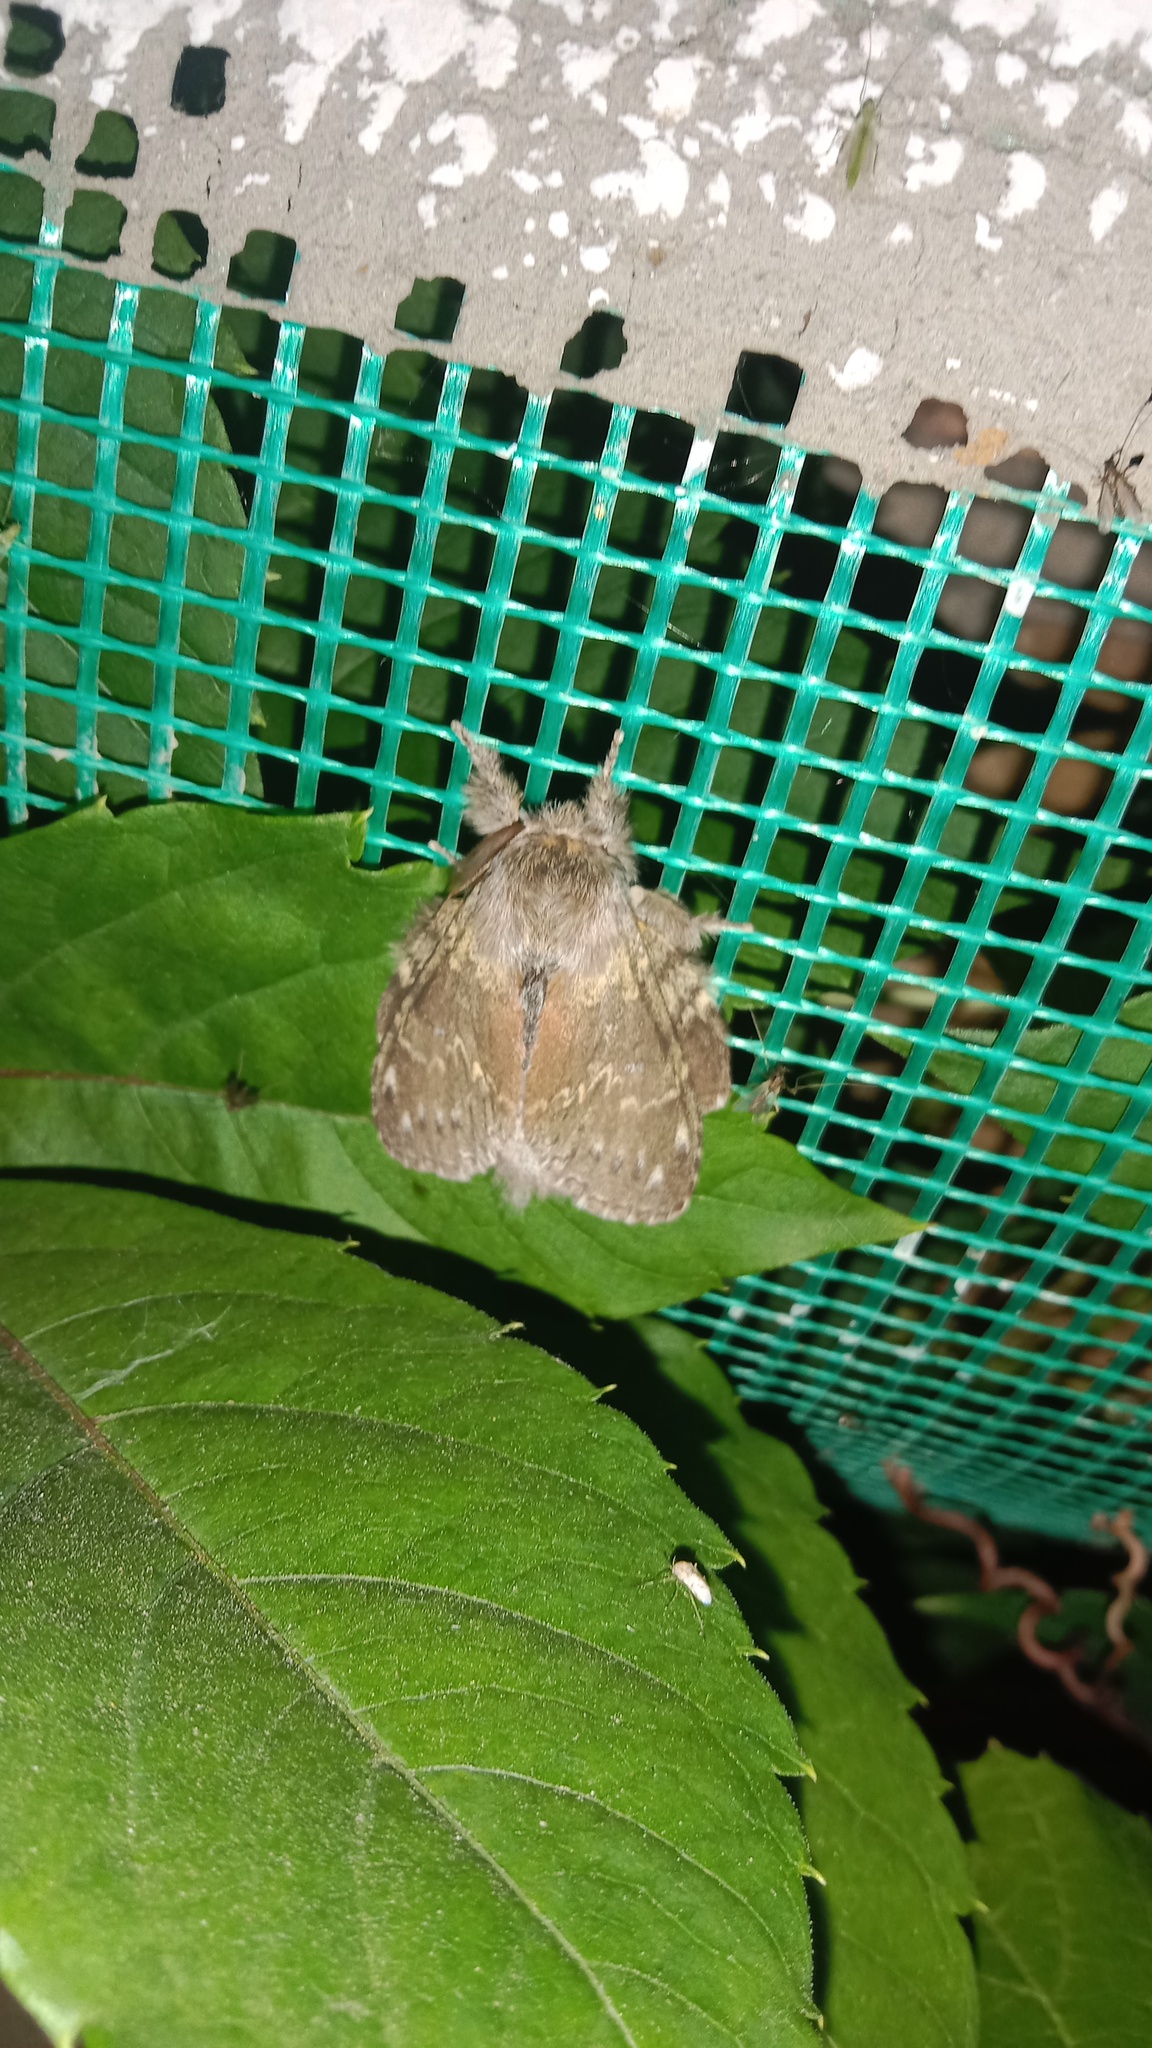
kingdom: Animalia
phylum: Arthropoda
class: Insecta
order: Lepidoptera
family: Notodontidae
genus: Stauropus
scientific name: Stauropus fagi
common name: Lobster moth
